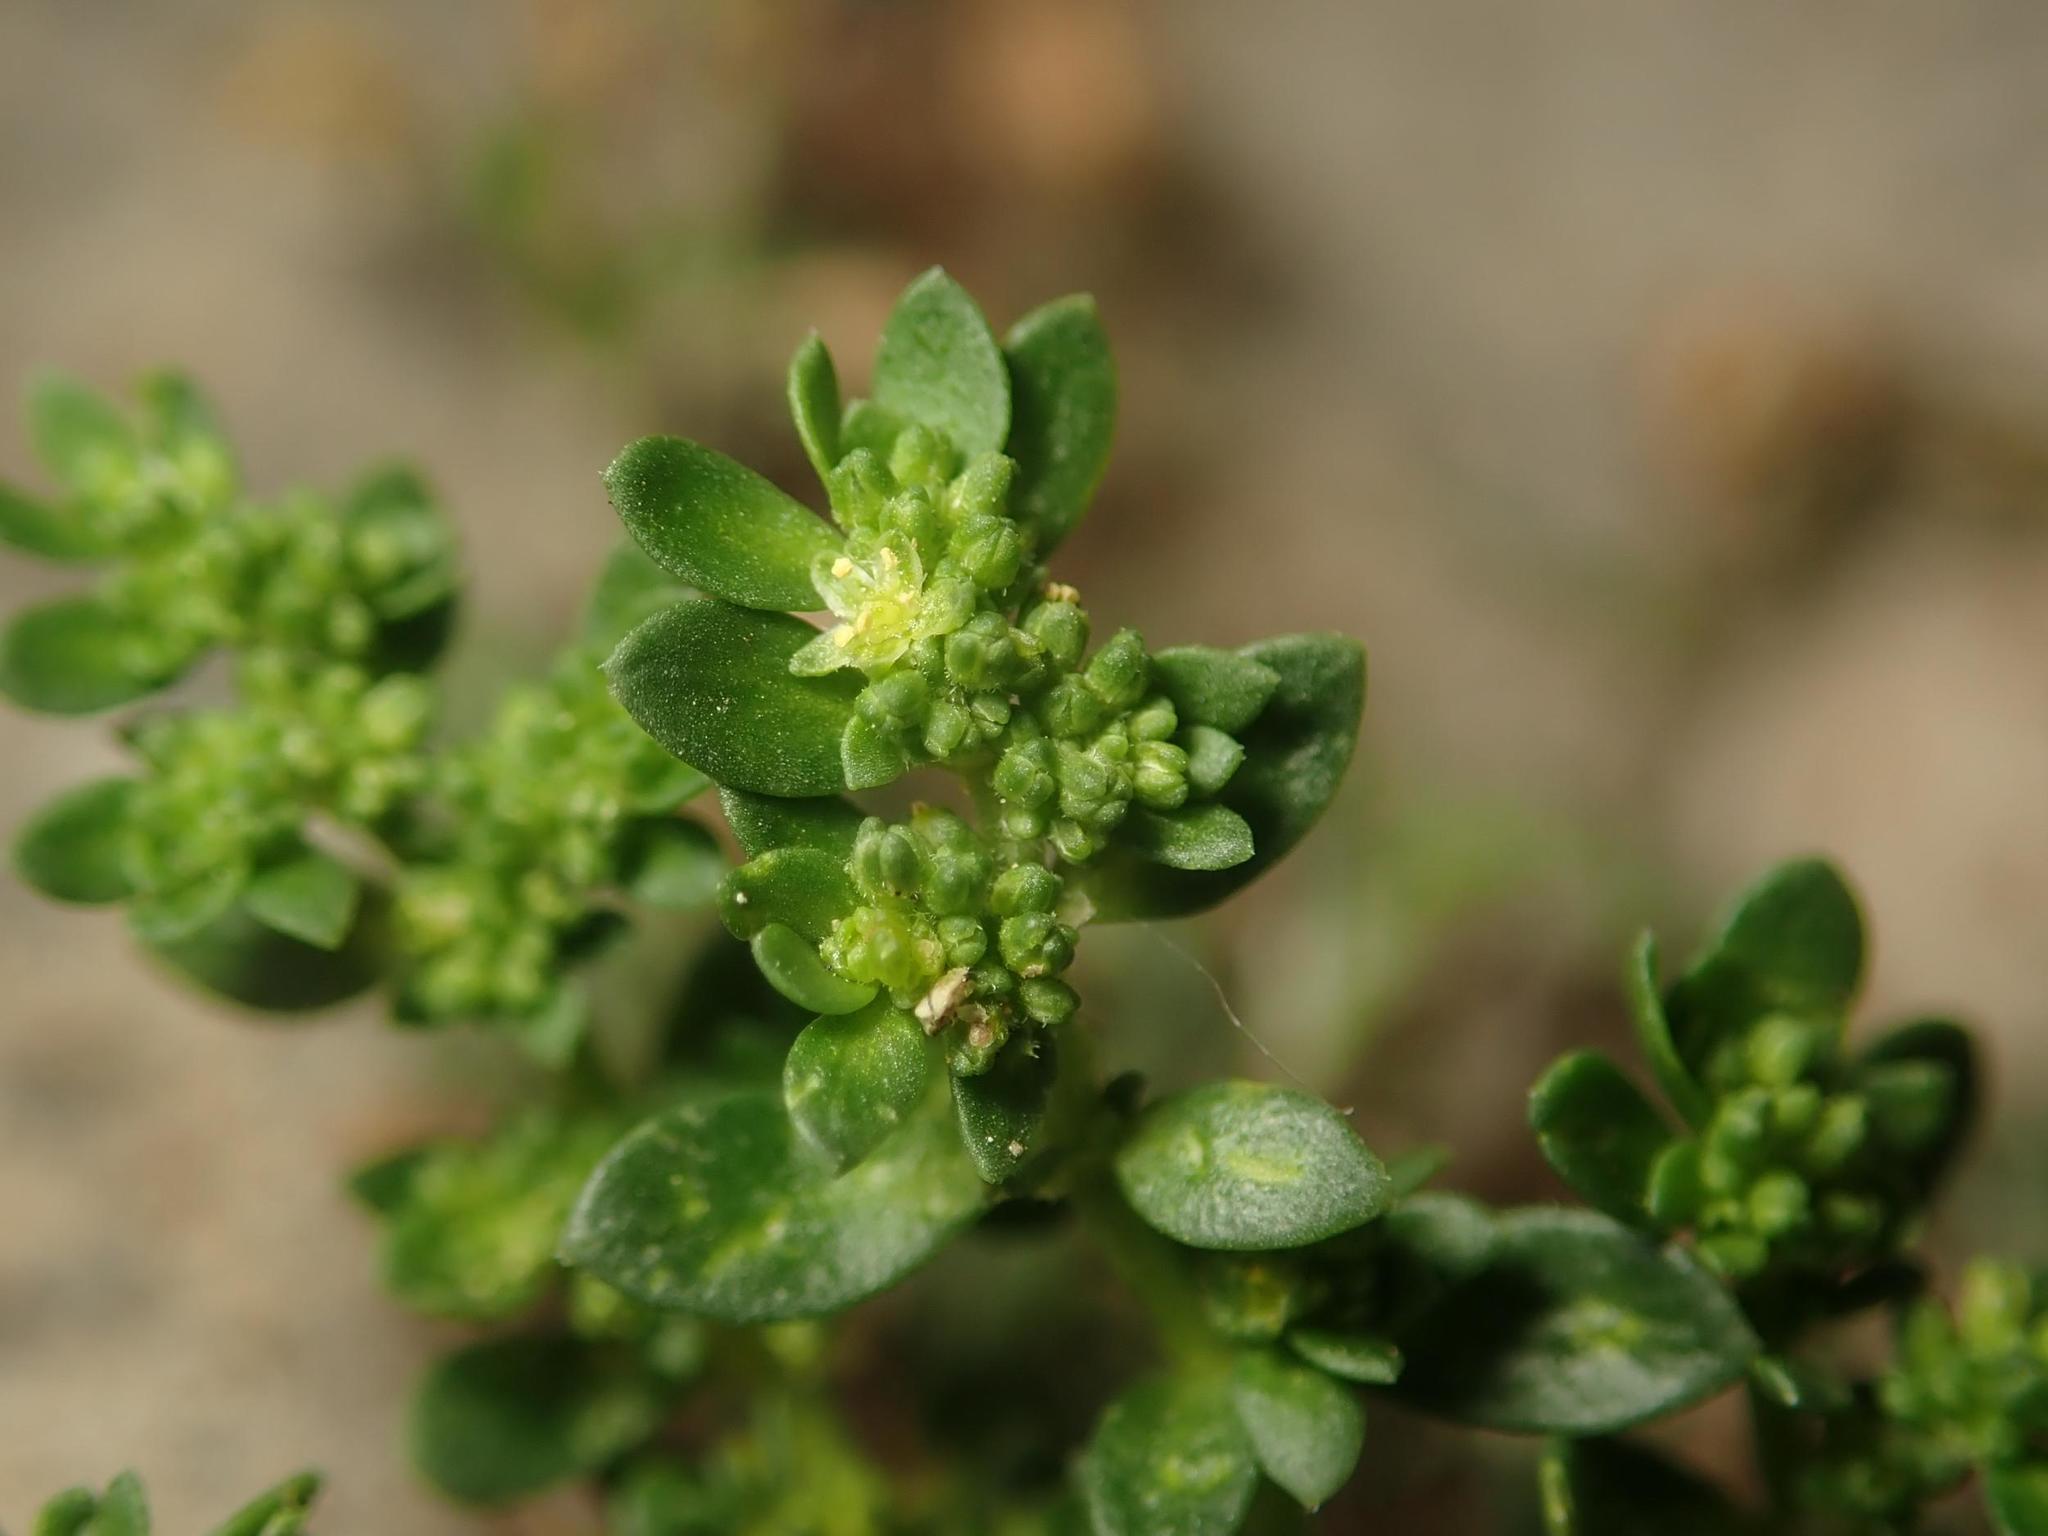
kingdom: Plantae
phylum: Tracheophyta
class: Magnoliopsida
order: Caryophyllales
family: Caryophyllaceae
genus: Herniaria
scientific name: Herniaria glabra
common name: Smooth rupturewort
